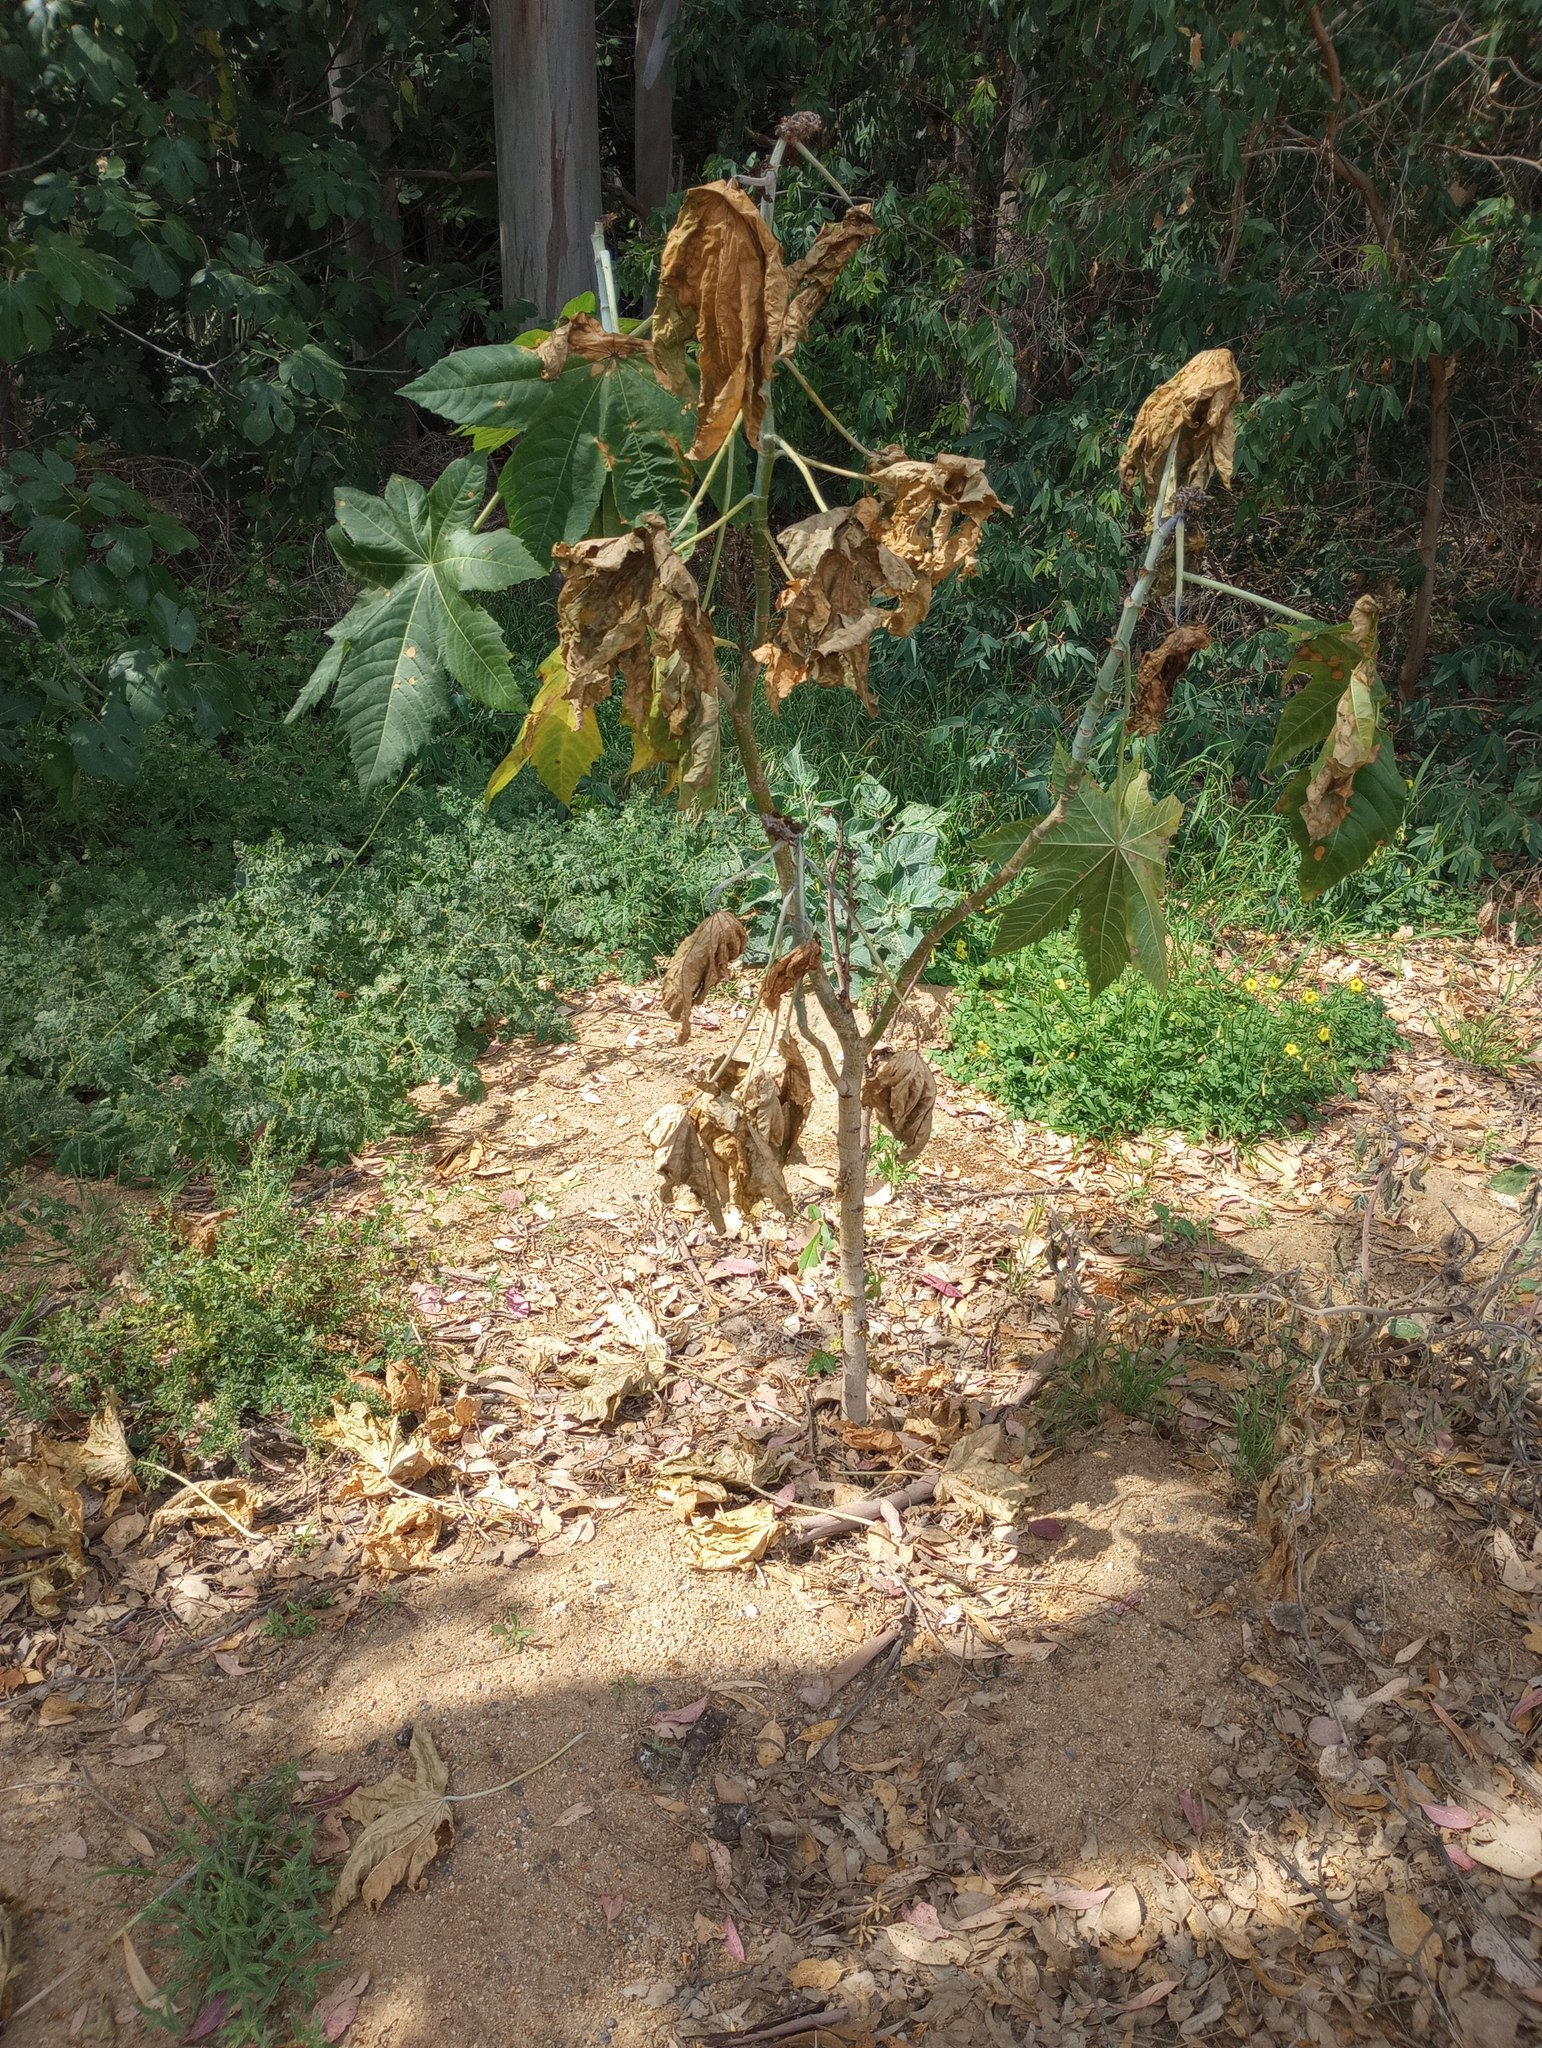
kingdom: Plantae
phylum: Tracheophyta
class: Magnoliopsida
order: Malpighiales
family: Euphorbiaceae
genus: Ricinus
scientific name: Ricinus communis
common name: Castor-oil-plant
